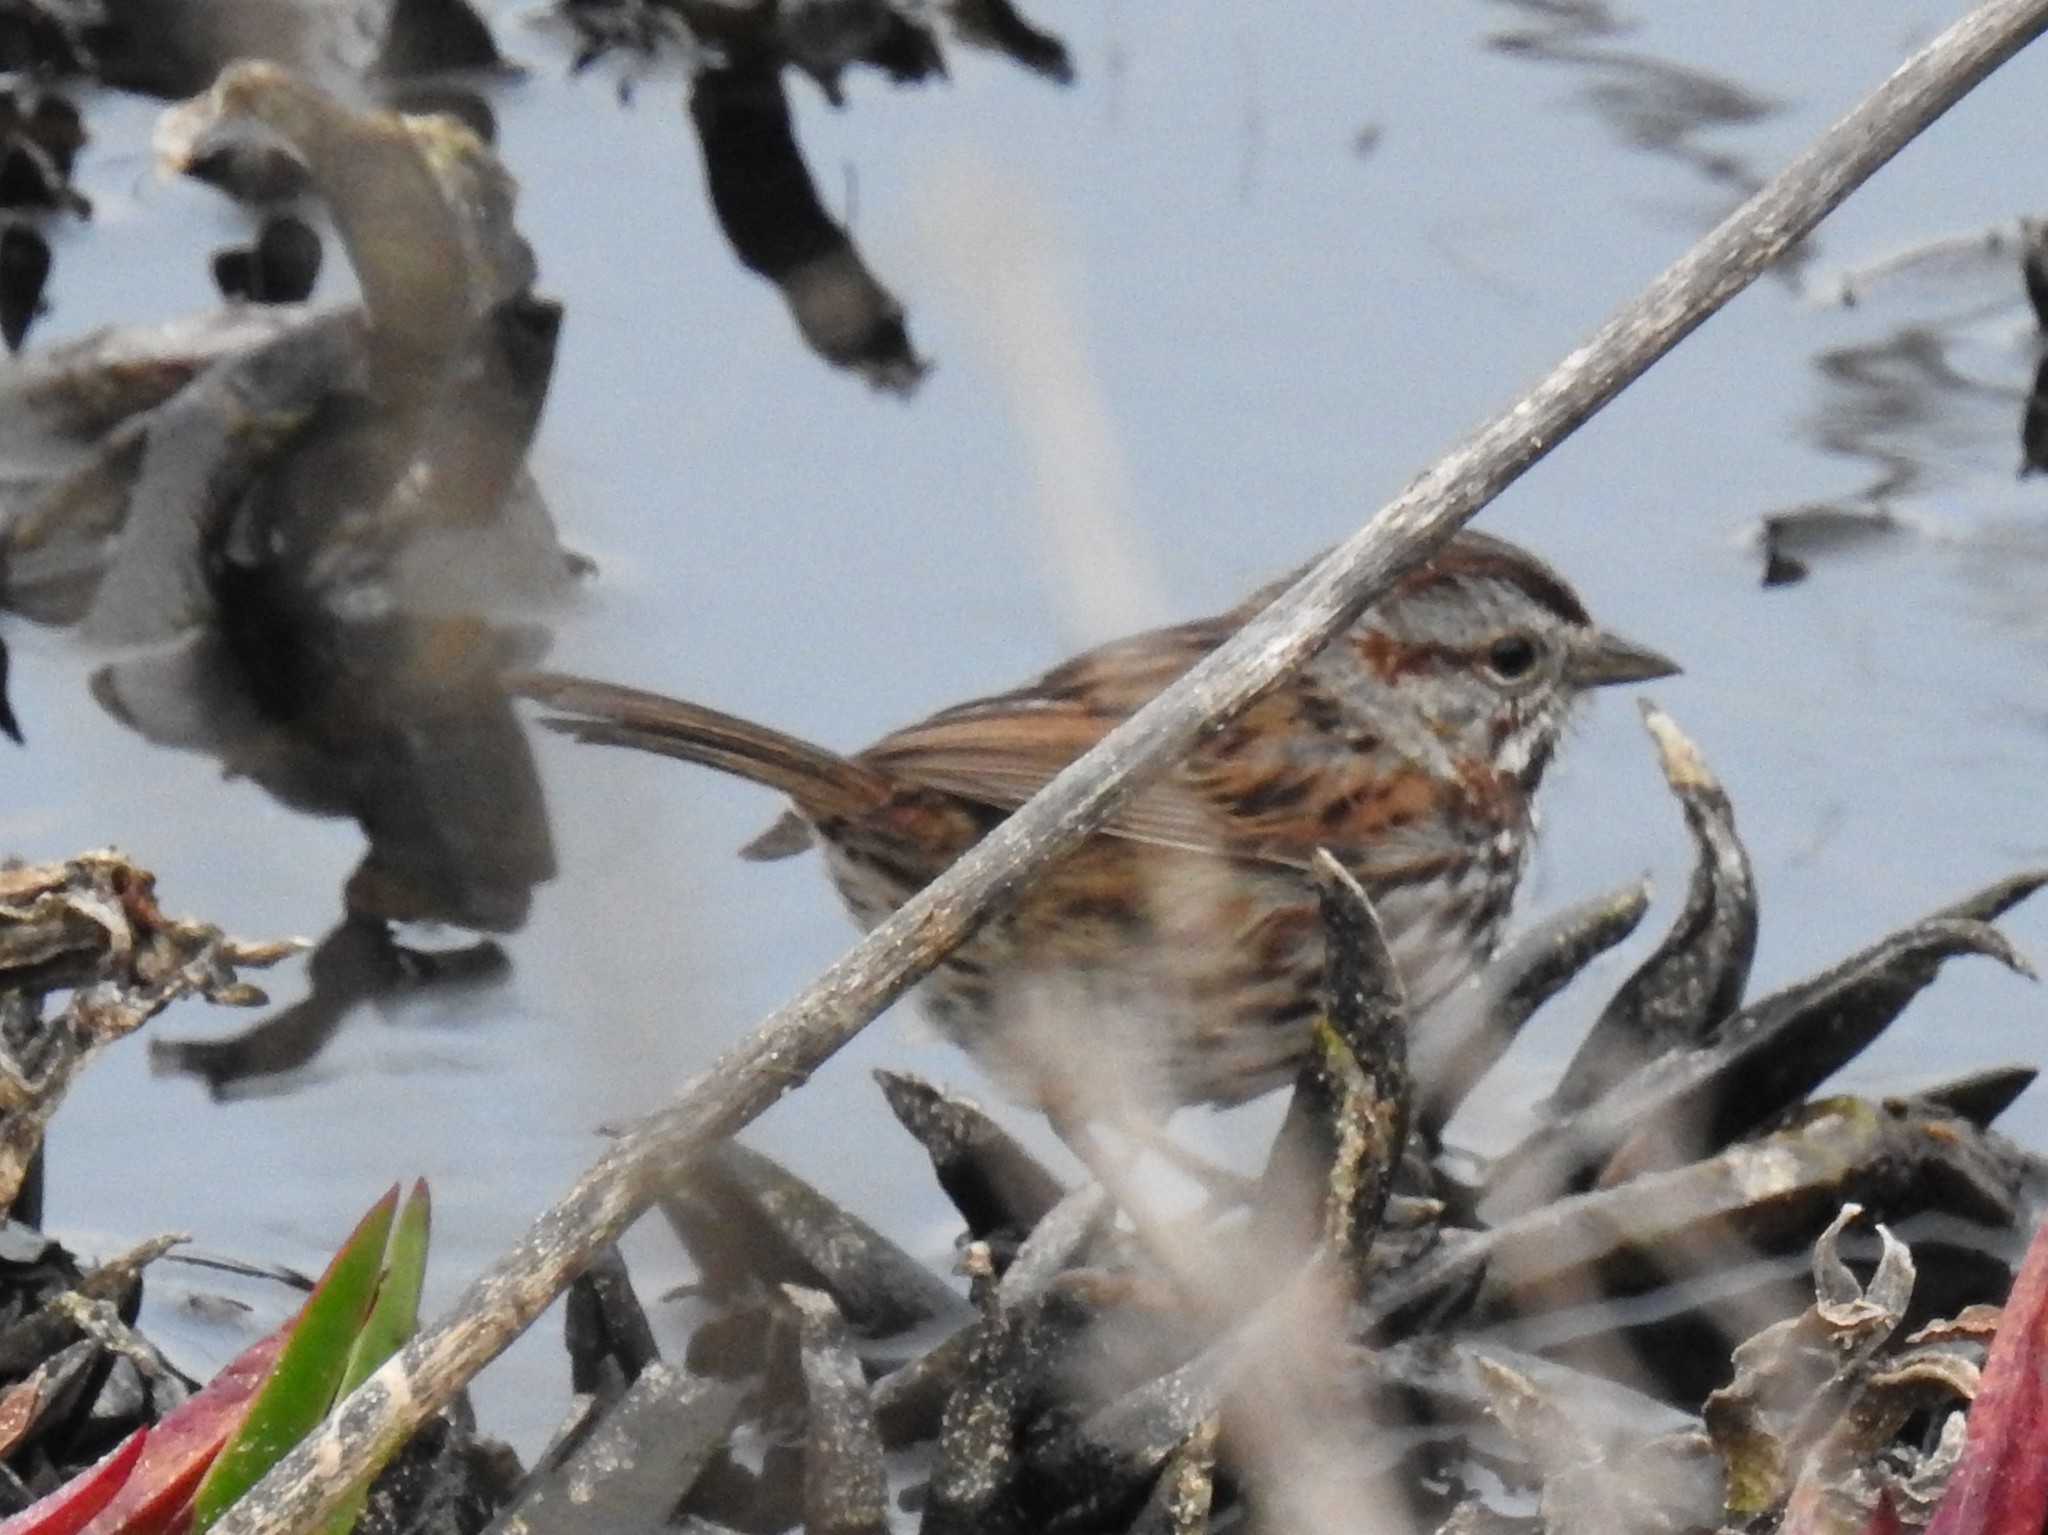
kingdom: Animalia
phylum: Chordata
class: Aves
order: Passeriformes
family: Passerellidae
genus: Melospiza
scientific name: Melospiza melodia
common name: Song sparrow
